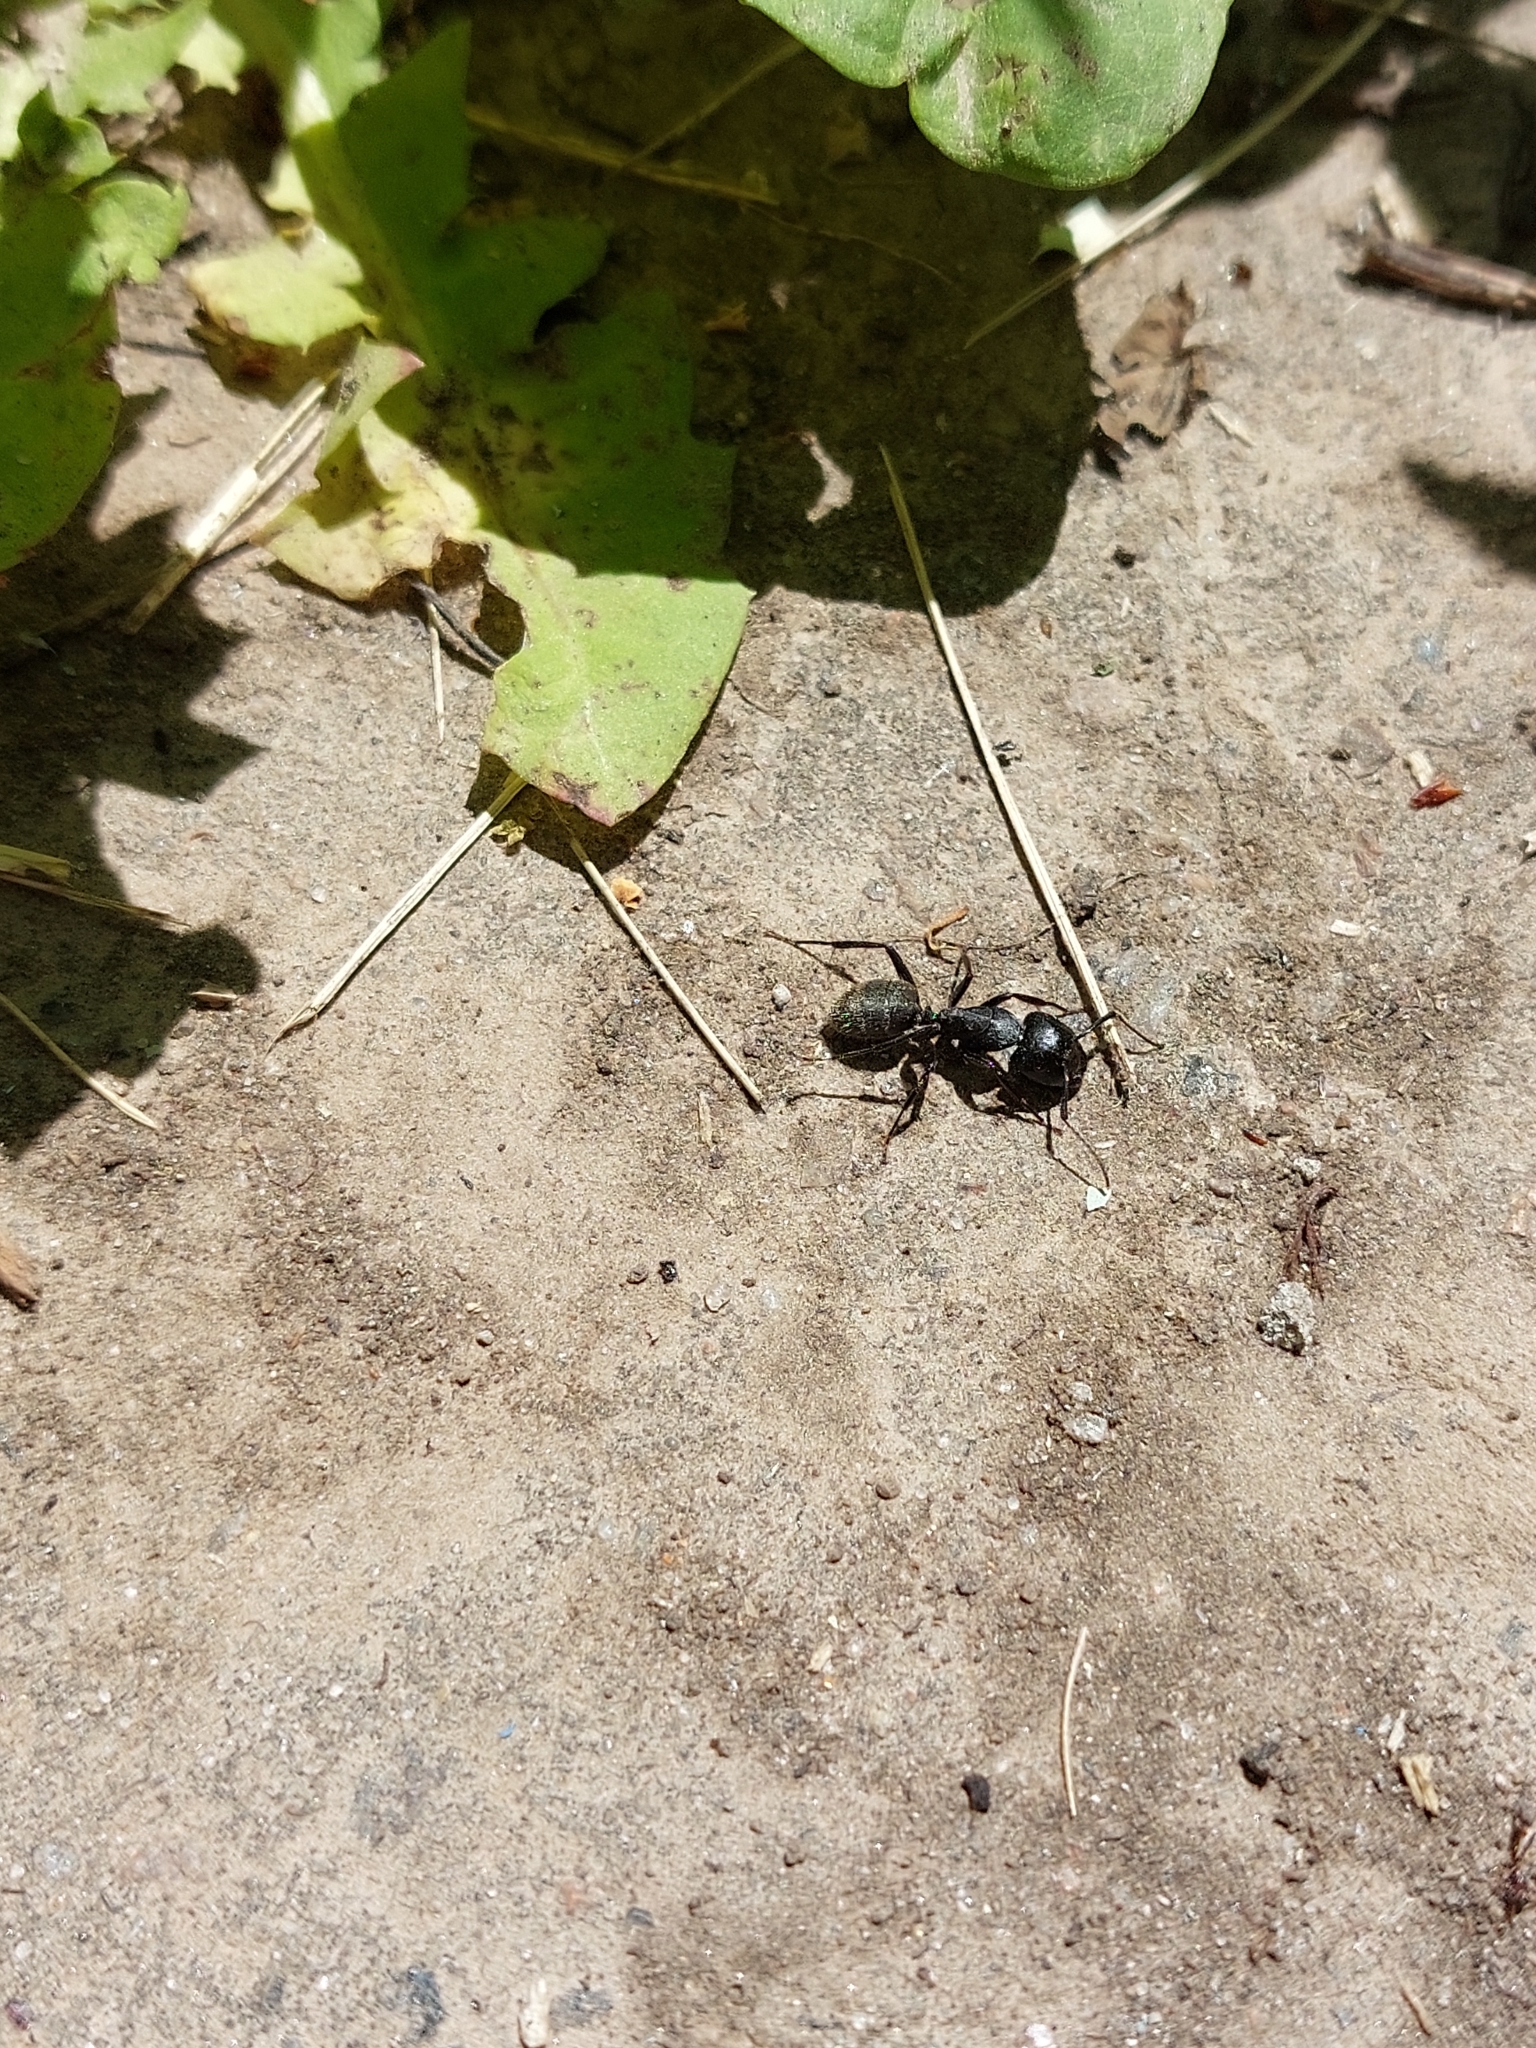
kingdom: Animalia
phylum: Arthropoda
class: Insecta
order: Hymenoptera
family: Formicidae
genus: Camponotus
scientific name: Camponotus vagus
